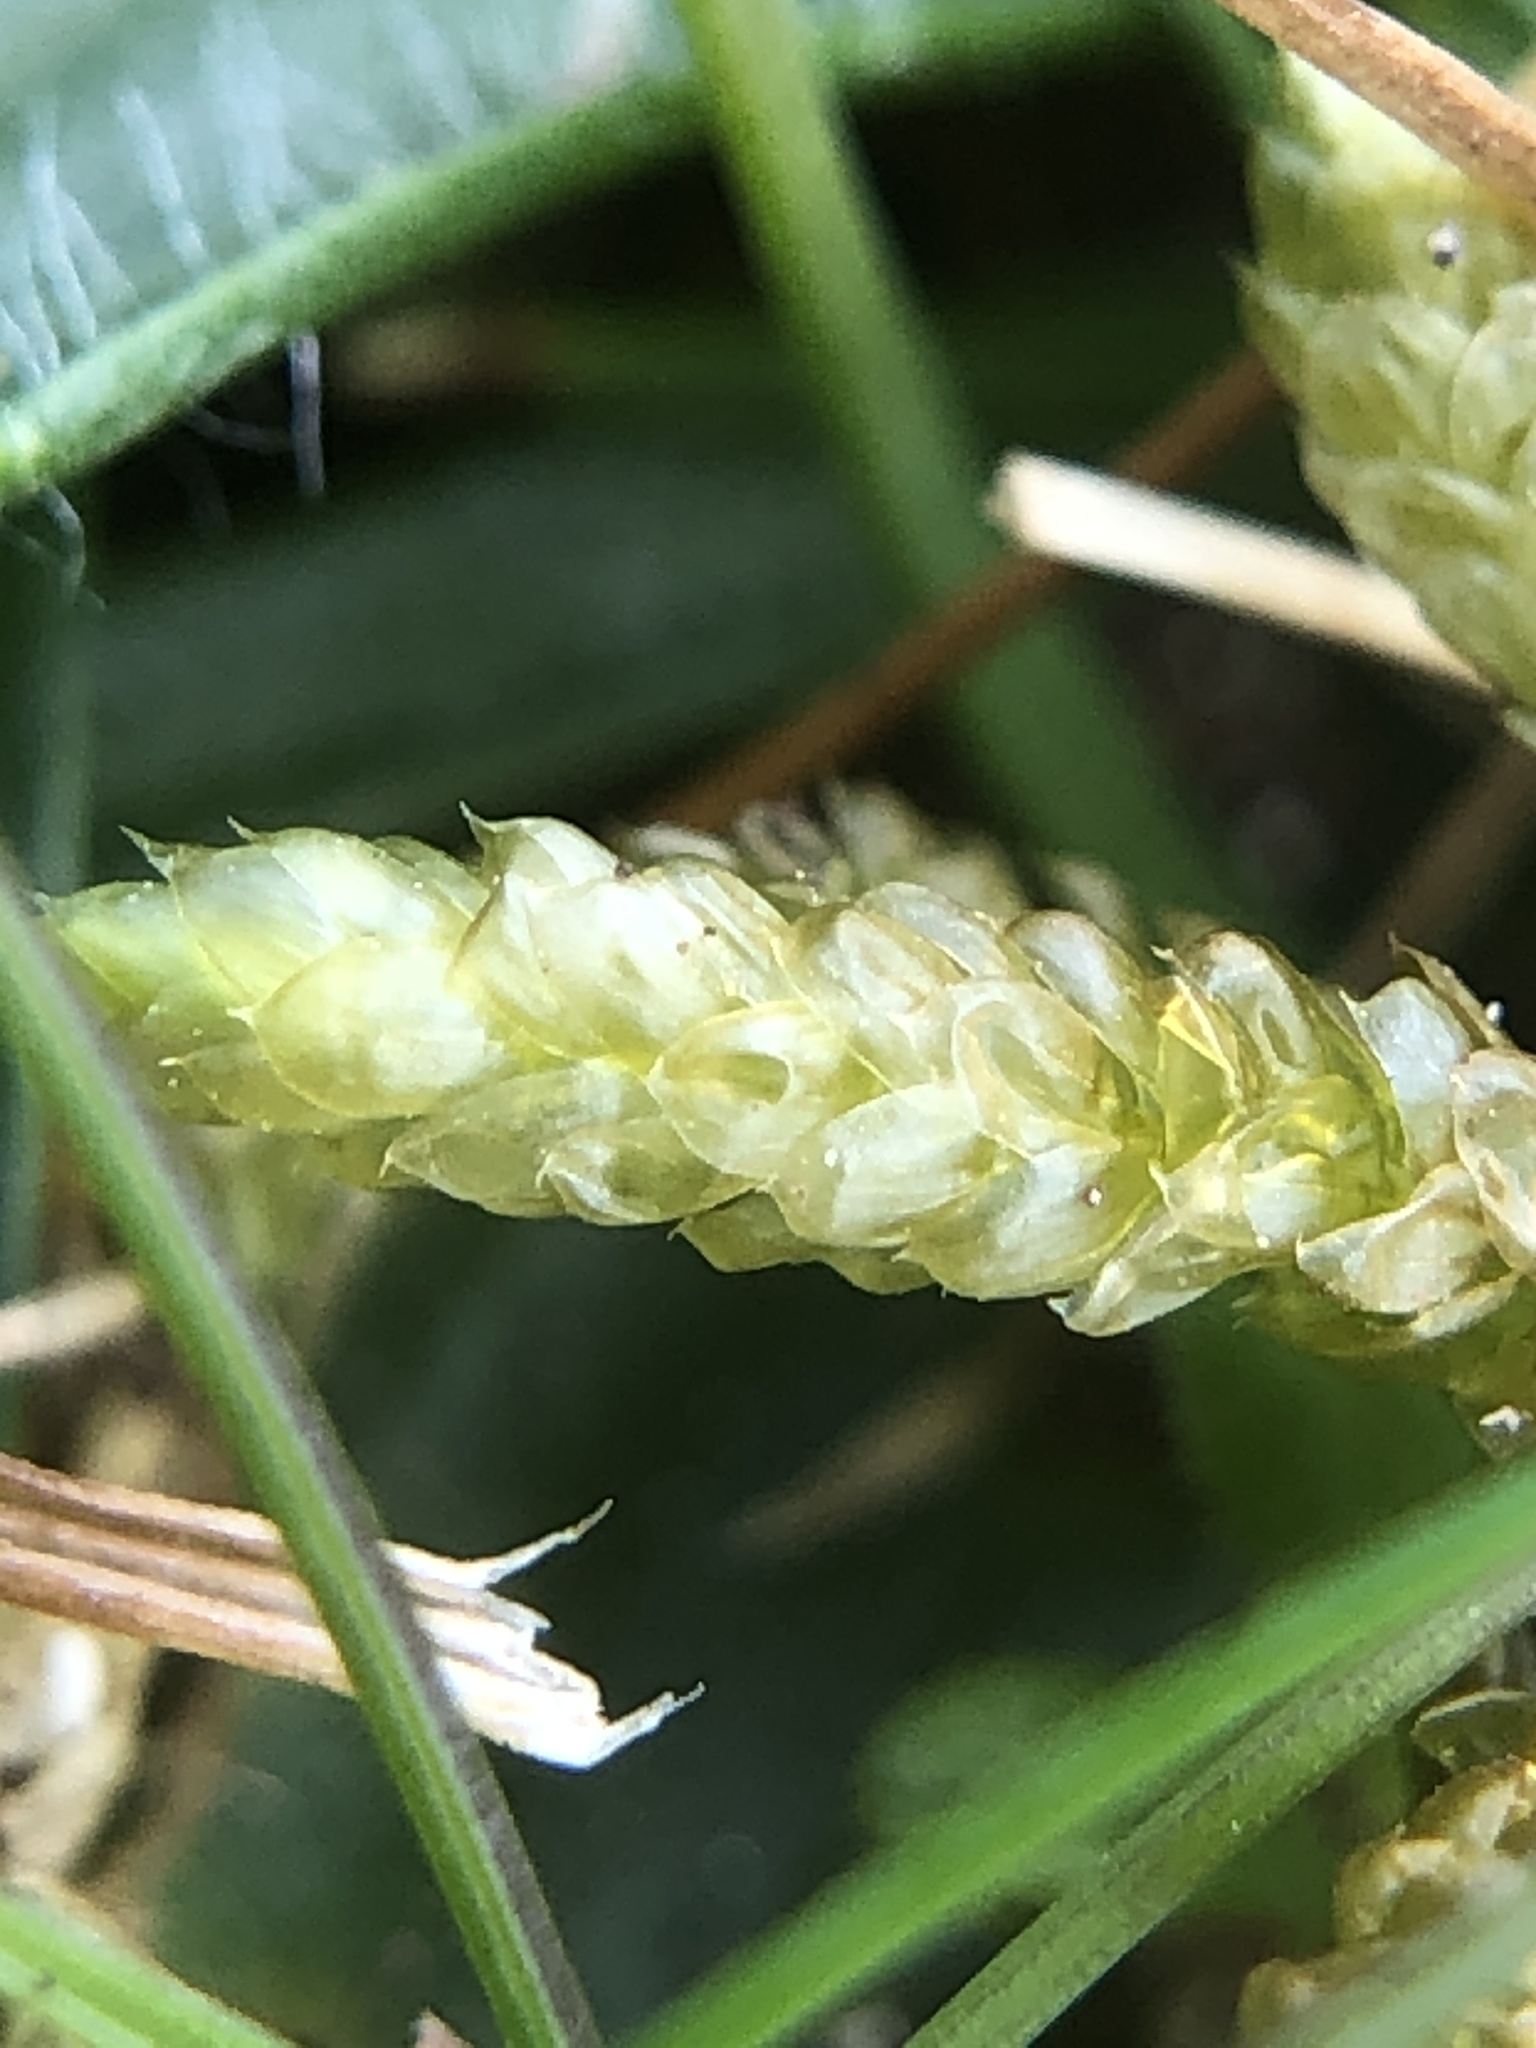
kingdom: Plantae
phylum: Bryophyta
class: Bryopsida
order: Hypnales
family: Brachytheciaceae
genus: Pseudoscleropodium
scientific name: Pseudoscleropodium purum
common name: Neat feather-moss
